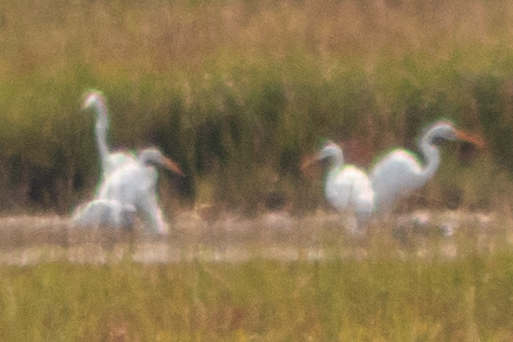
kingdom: Animalia
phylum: Chordata
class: Aves
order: Pelecaniformes
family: Ardeidae
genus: Ardea
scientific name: Ardea alba
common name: Great egret
